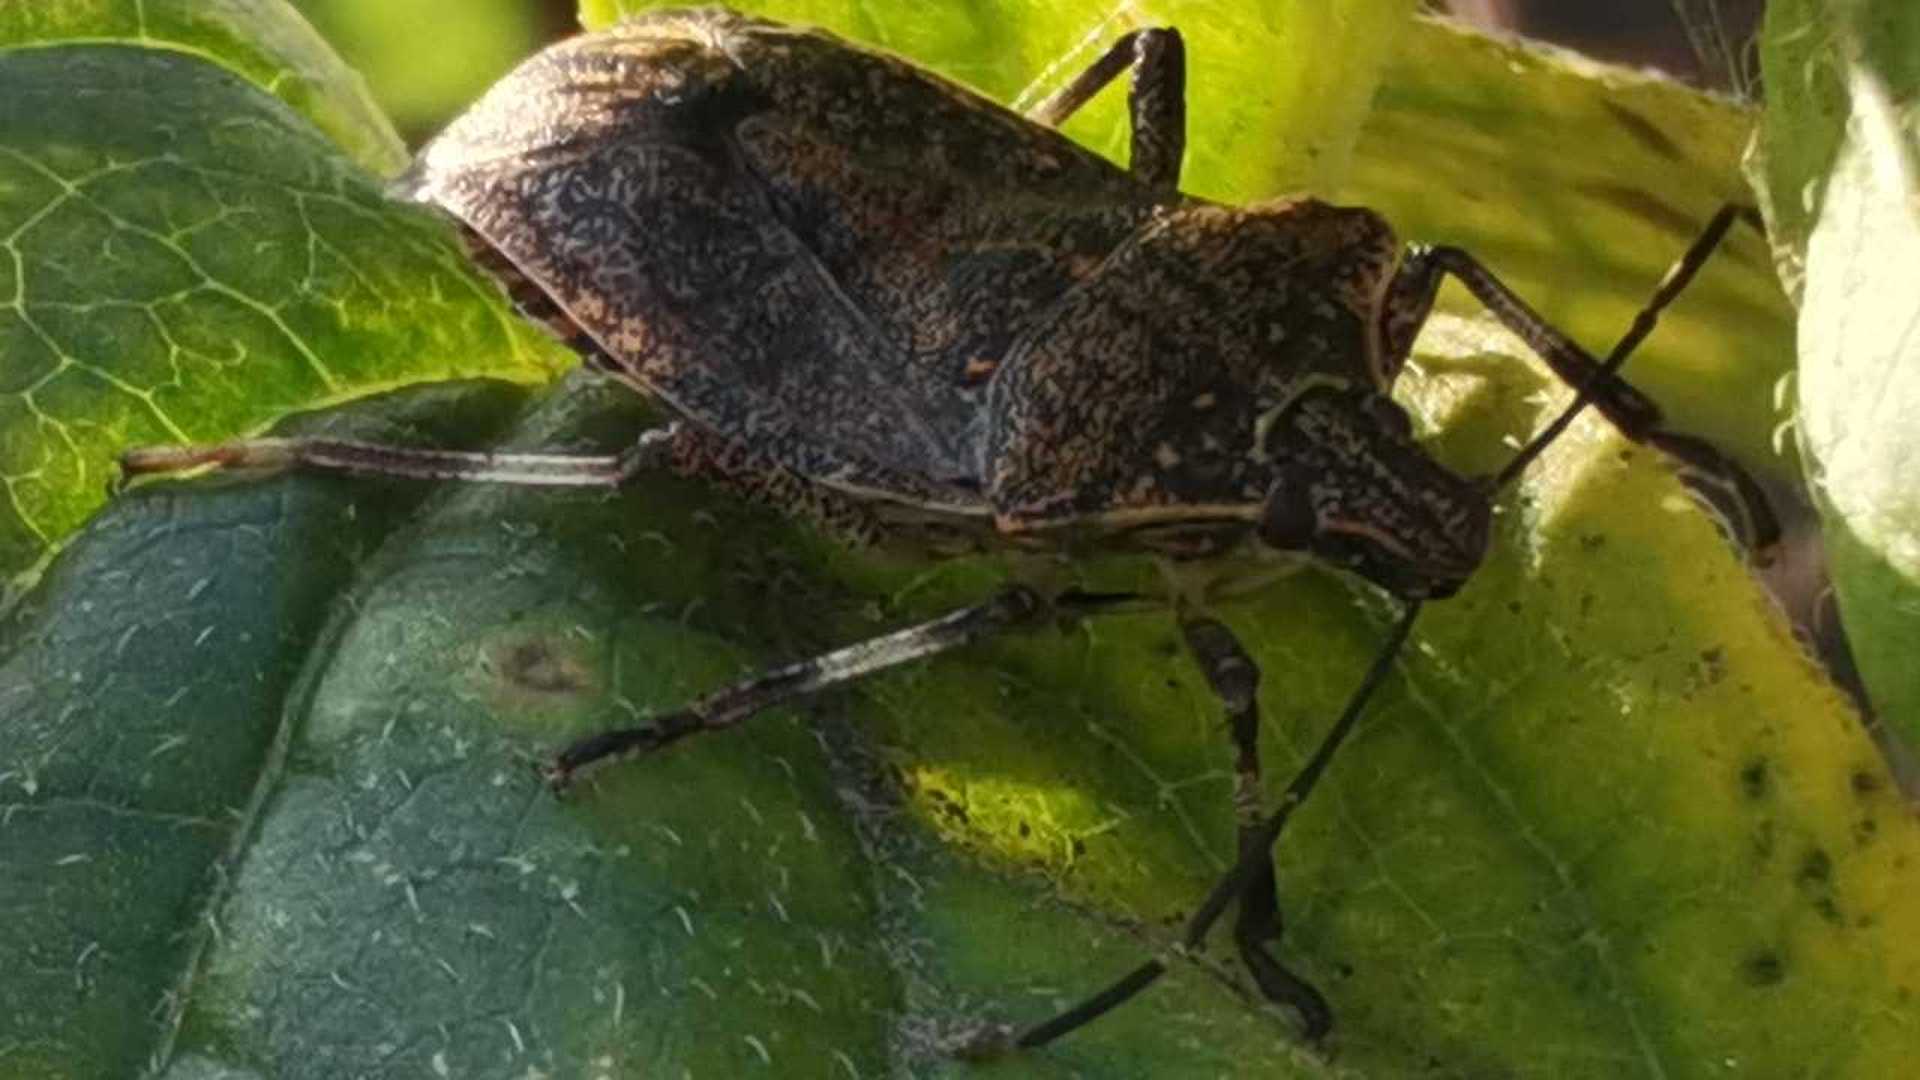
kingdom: Animalia
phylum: Arthropoda
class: Insecta
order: Hemiptera
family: Pentatomidae
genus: Halyomorpha
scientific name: Halyomorpha halys
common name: Brown marmorated stink bug
